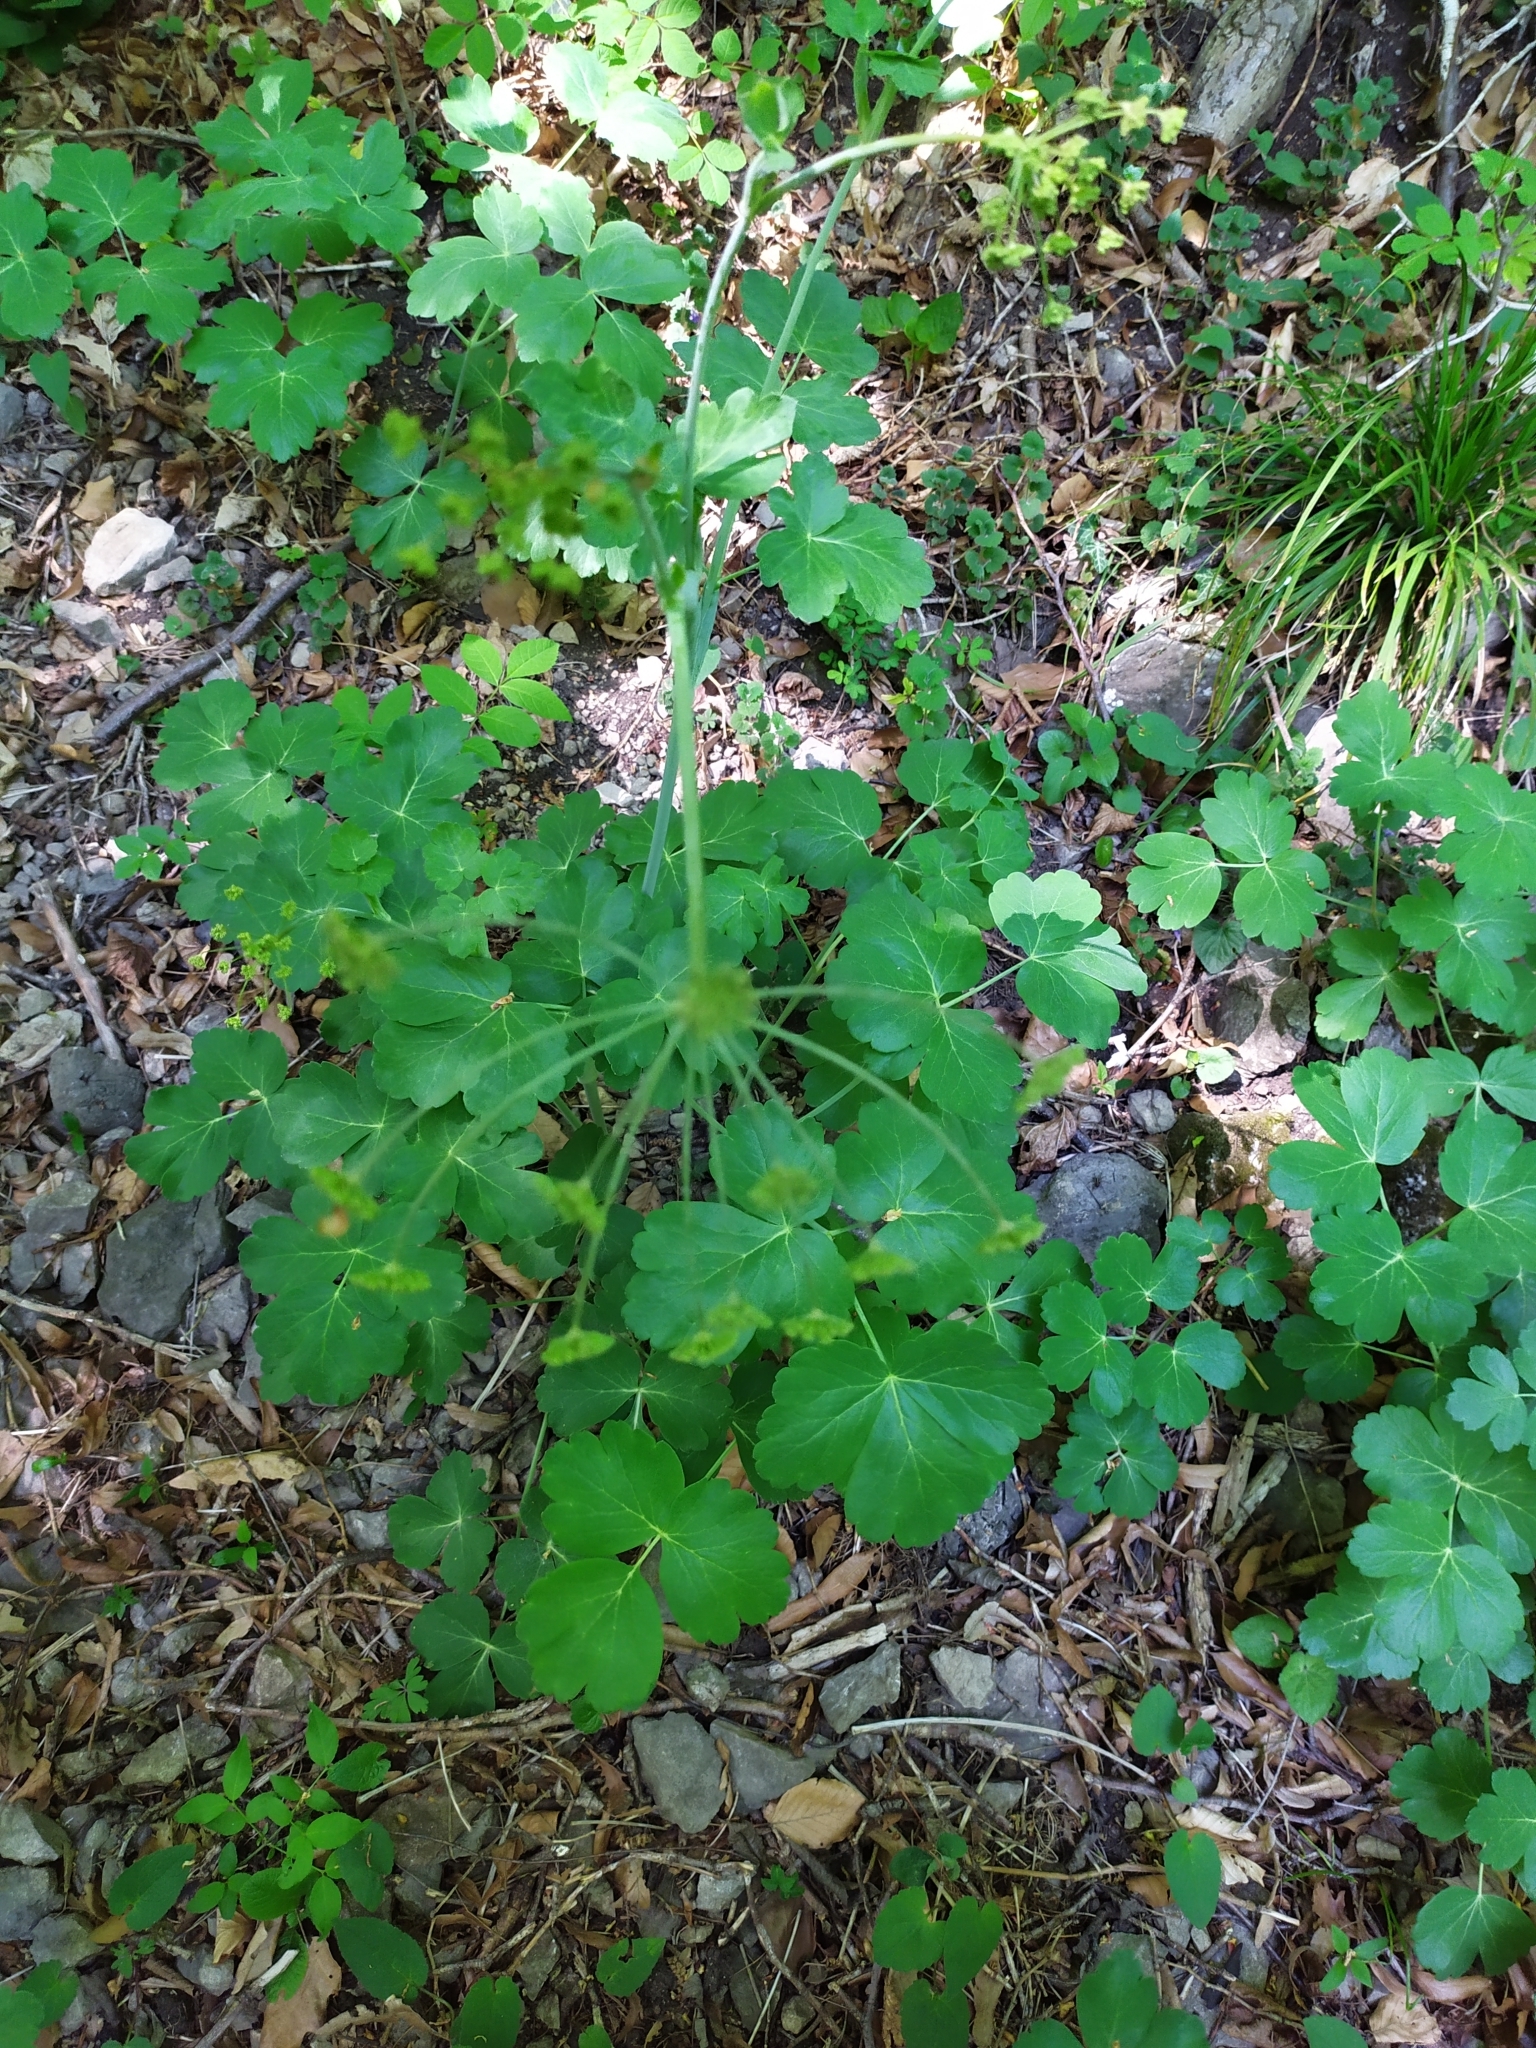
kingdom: Plantae
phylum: Tracheophyta
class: Magnoliopsida
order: Apiales
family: Apiaceae
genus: Laser
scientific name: Laser trilobum
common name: Laser
